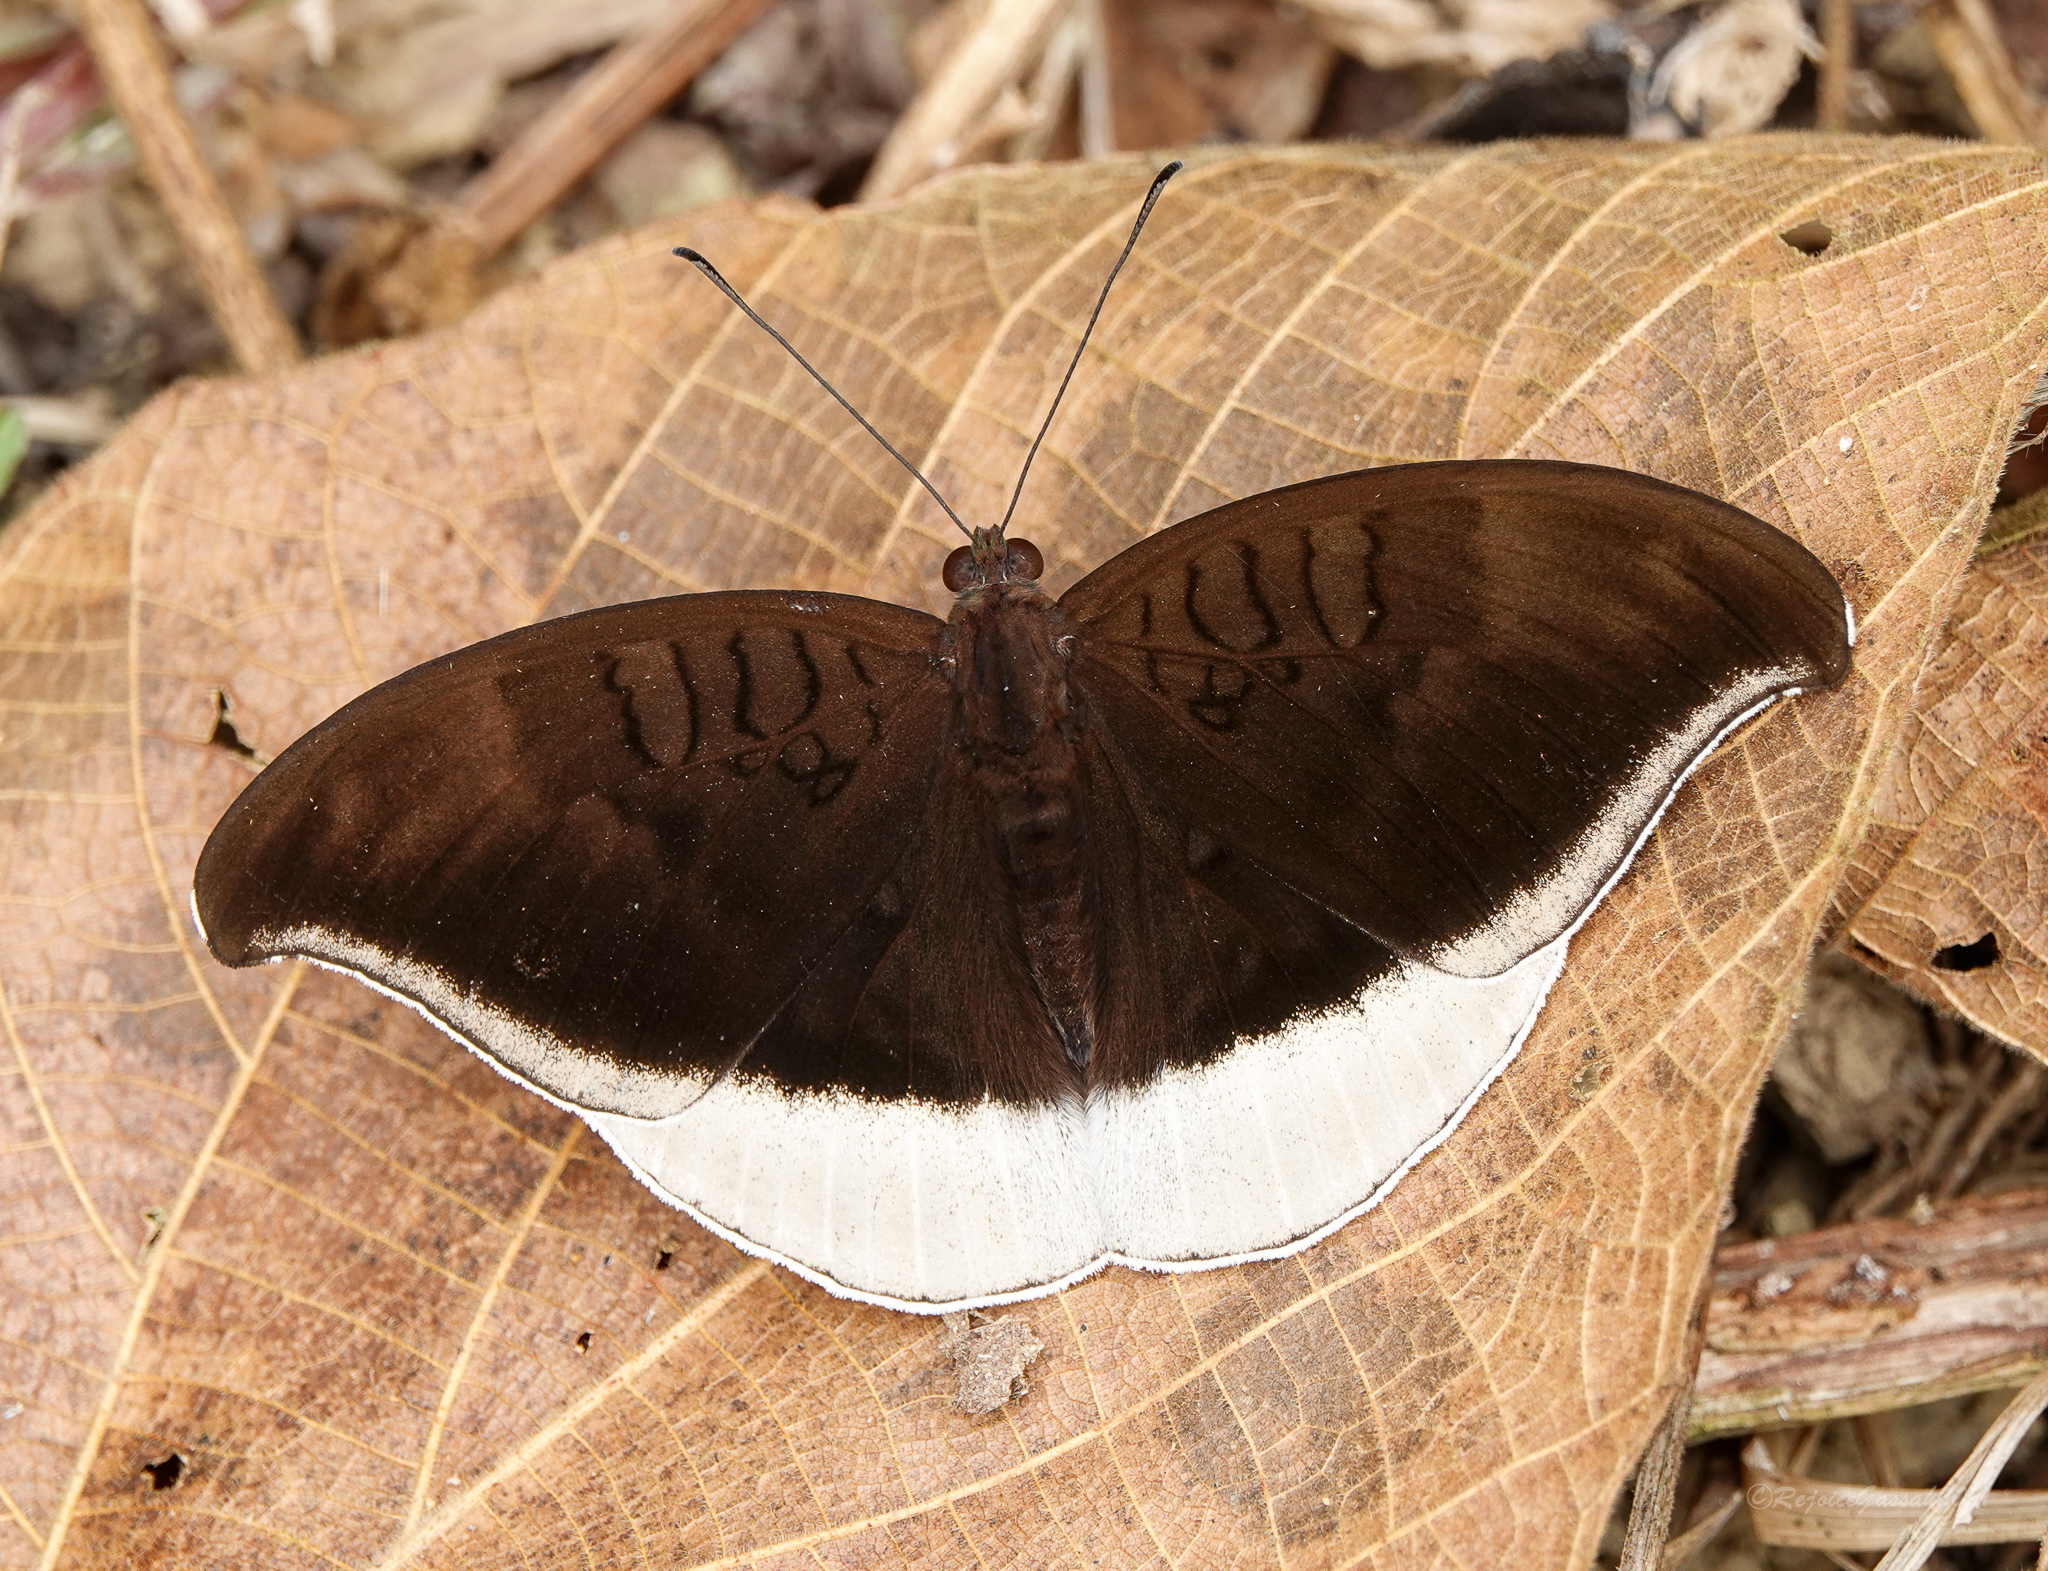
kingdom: Animalia
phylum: Arthropoda
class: Insecta
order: Lepidoptera
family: Nymphalidae
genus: Tanaecia
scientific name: Tanaecia lepidea
